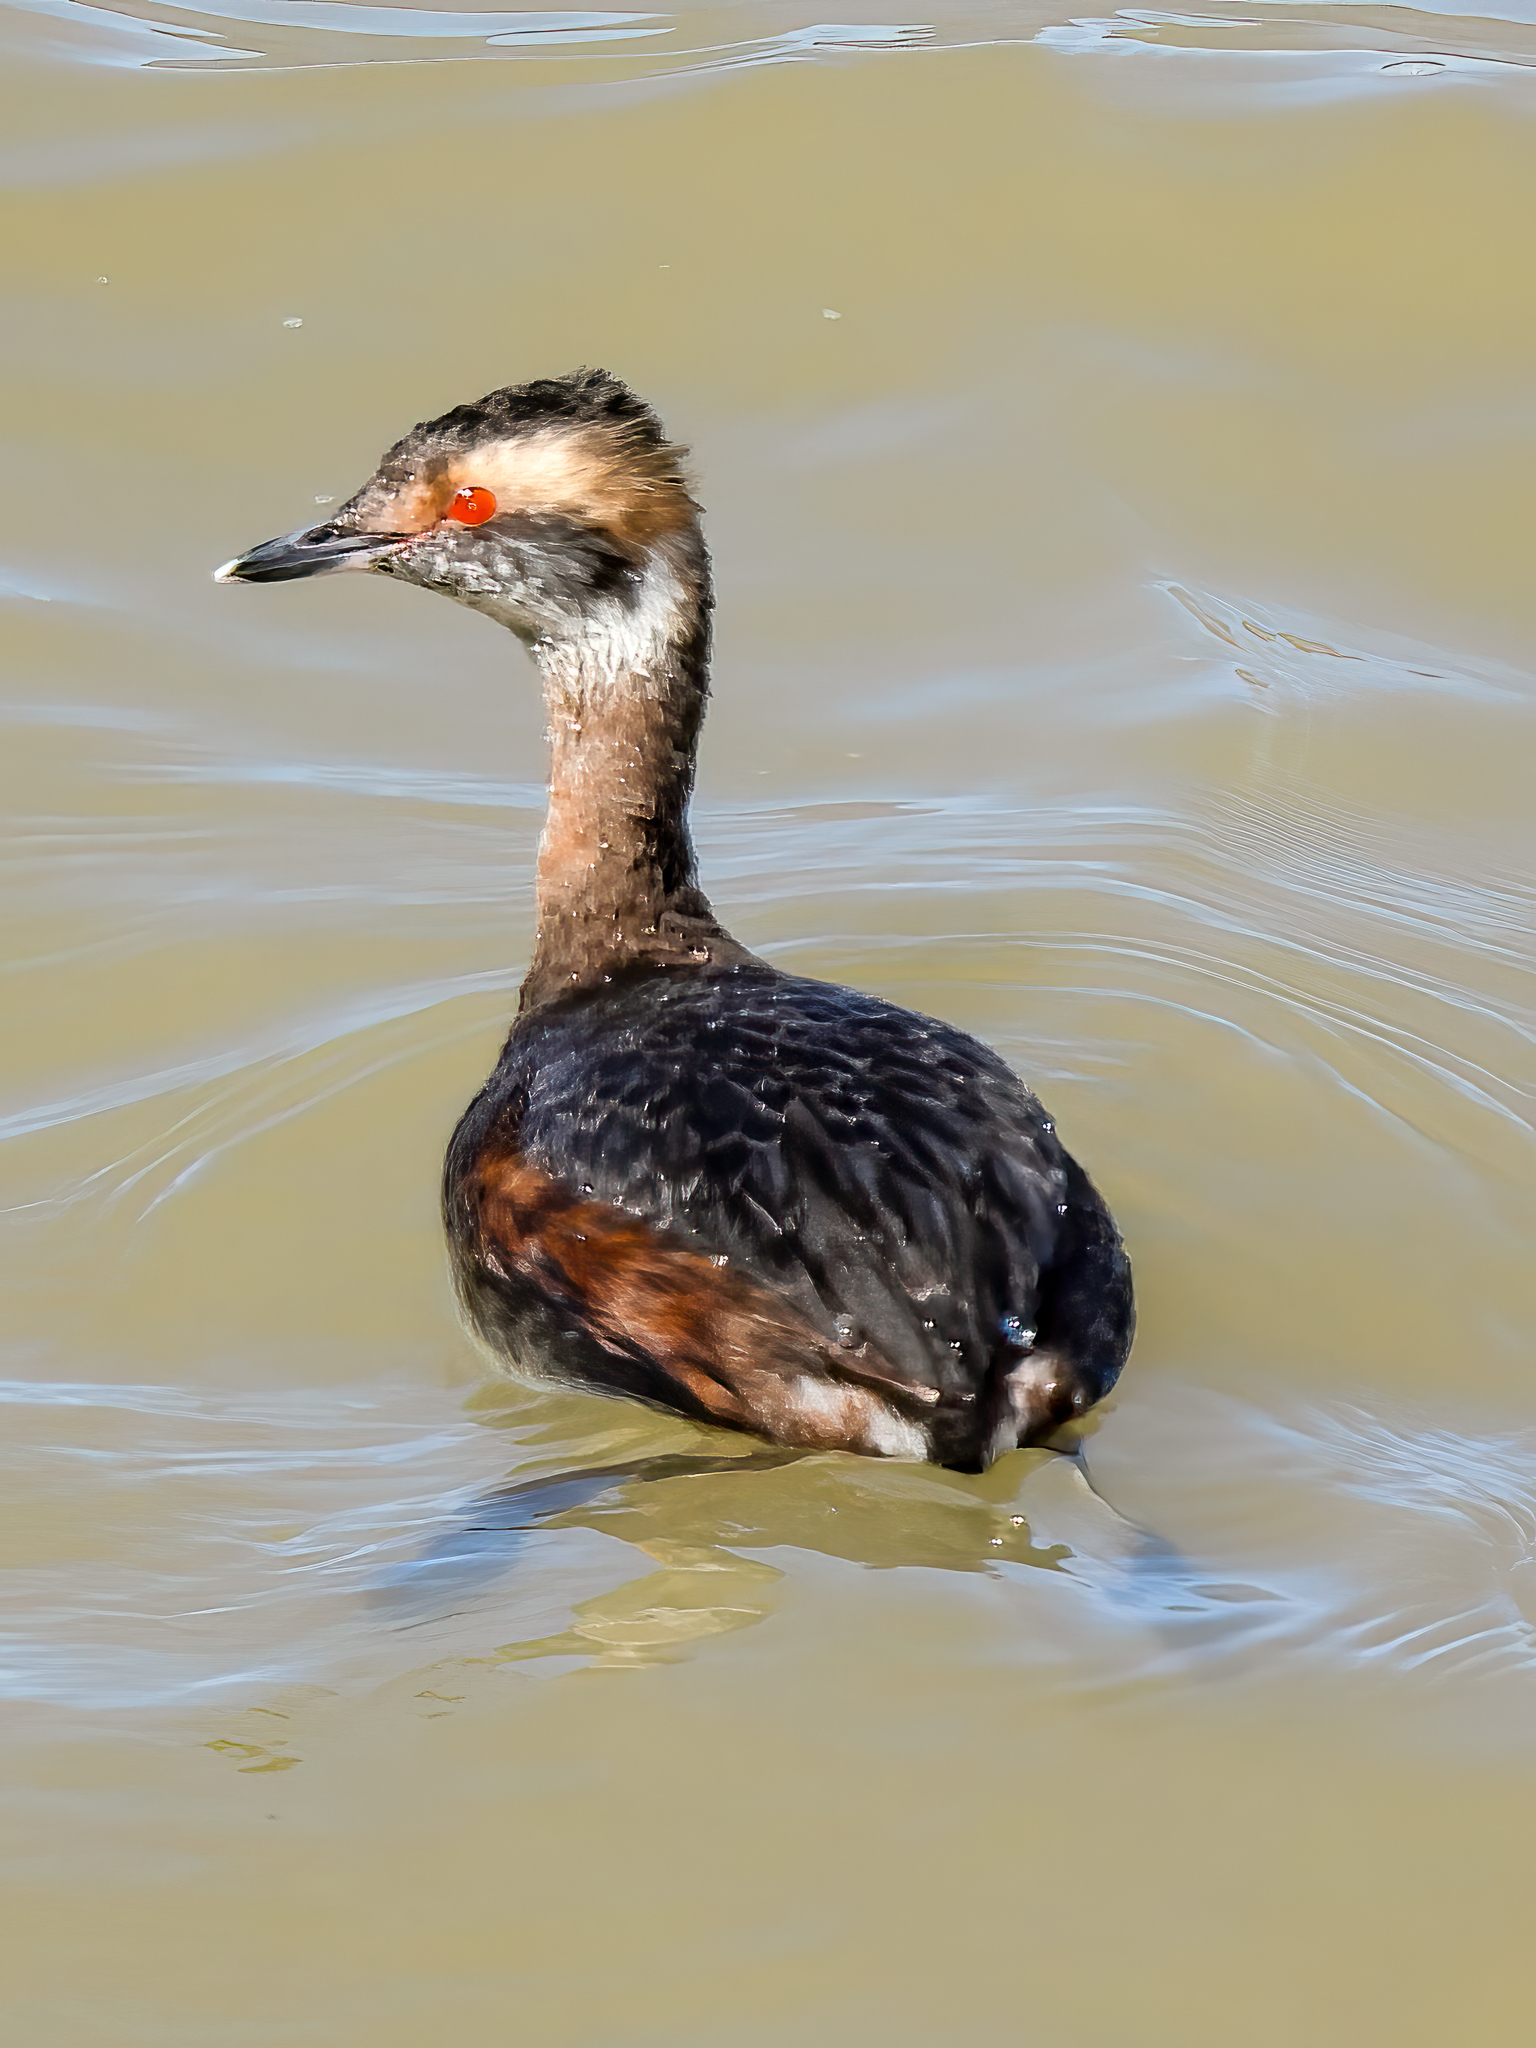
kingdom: Animalia
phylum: Chordata
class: Aves
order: Podicipediformes
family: Podicipedidae
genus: Podiceps
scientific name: Podiceps auritus
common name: Horned grebe
